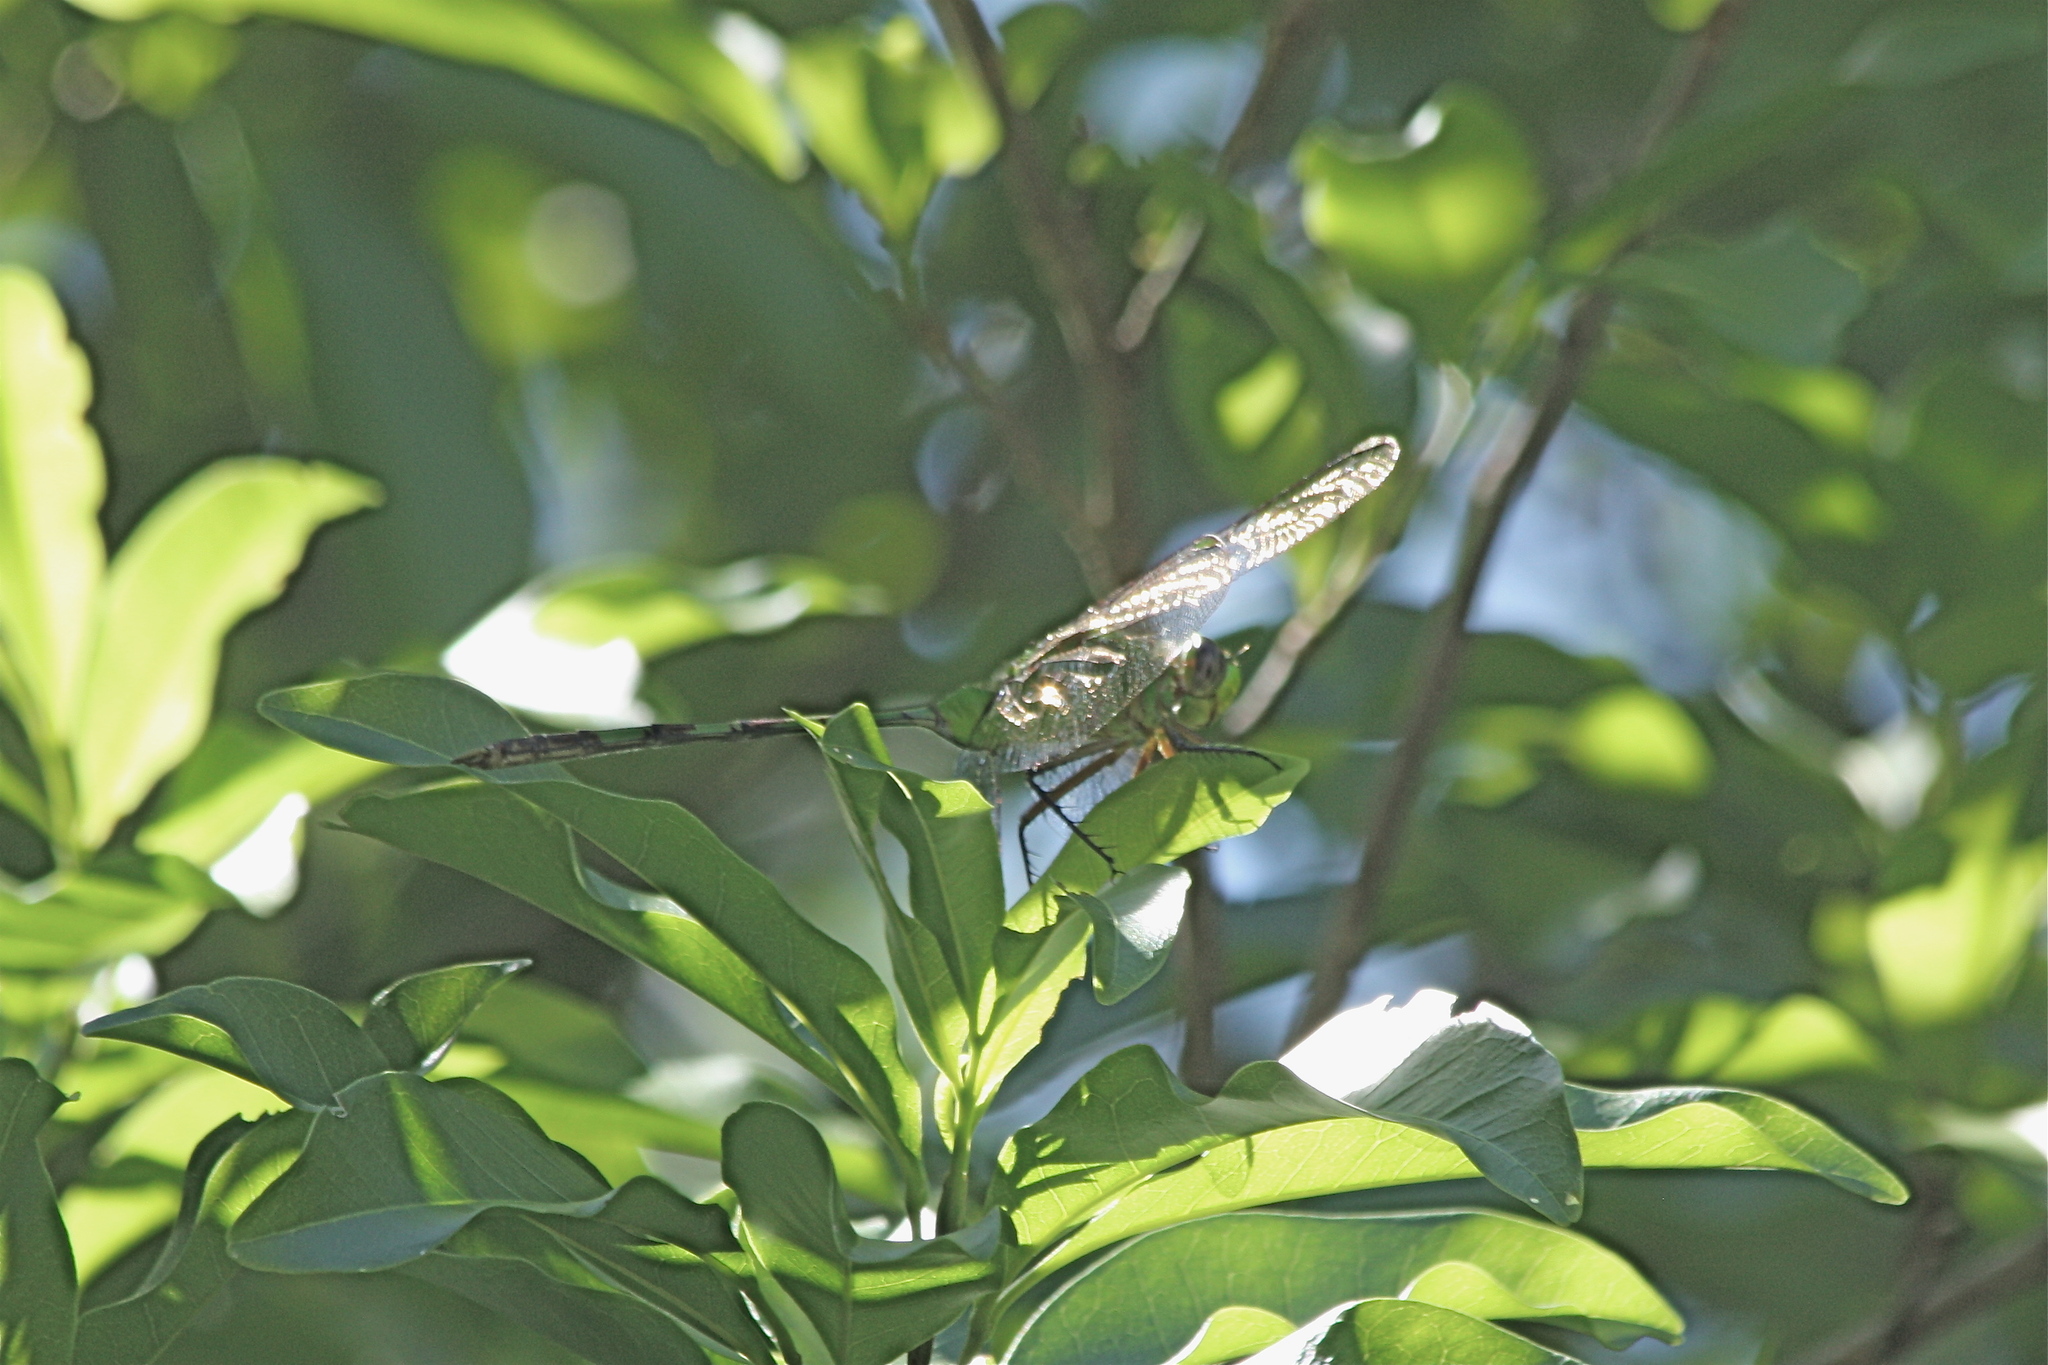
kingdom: Animalia
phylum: Arthropoda
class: Insecta
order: Odonata
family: Libellulidae
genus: Erythemis
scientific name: Erythemis vesiculosa
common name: Great pondhawk
